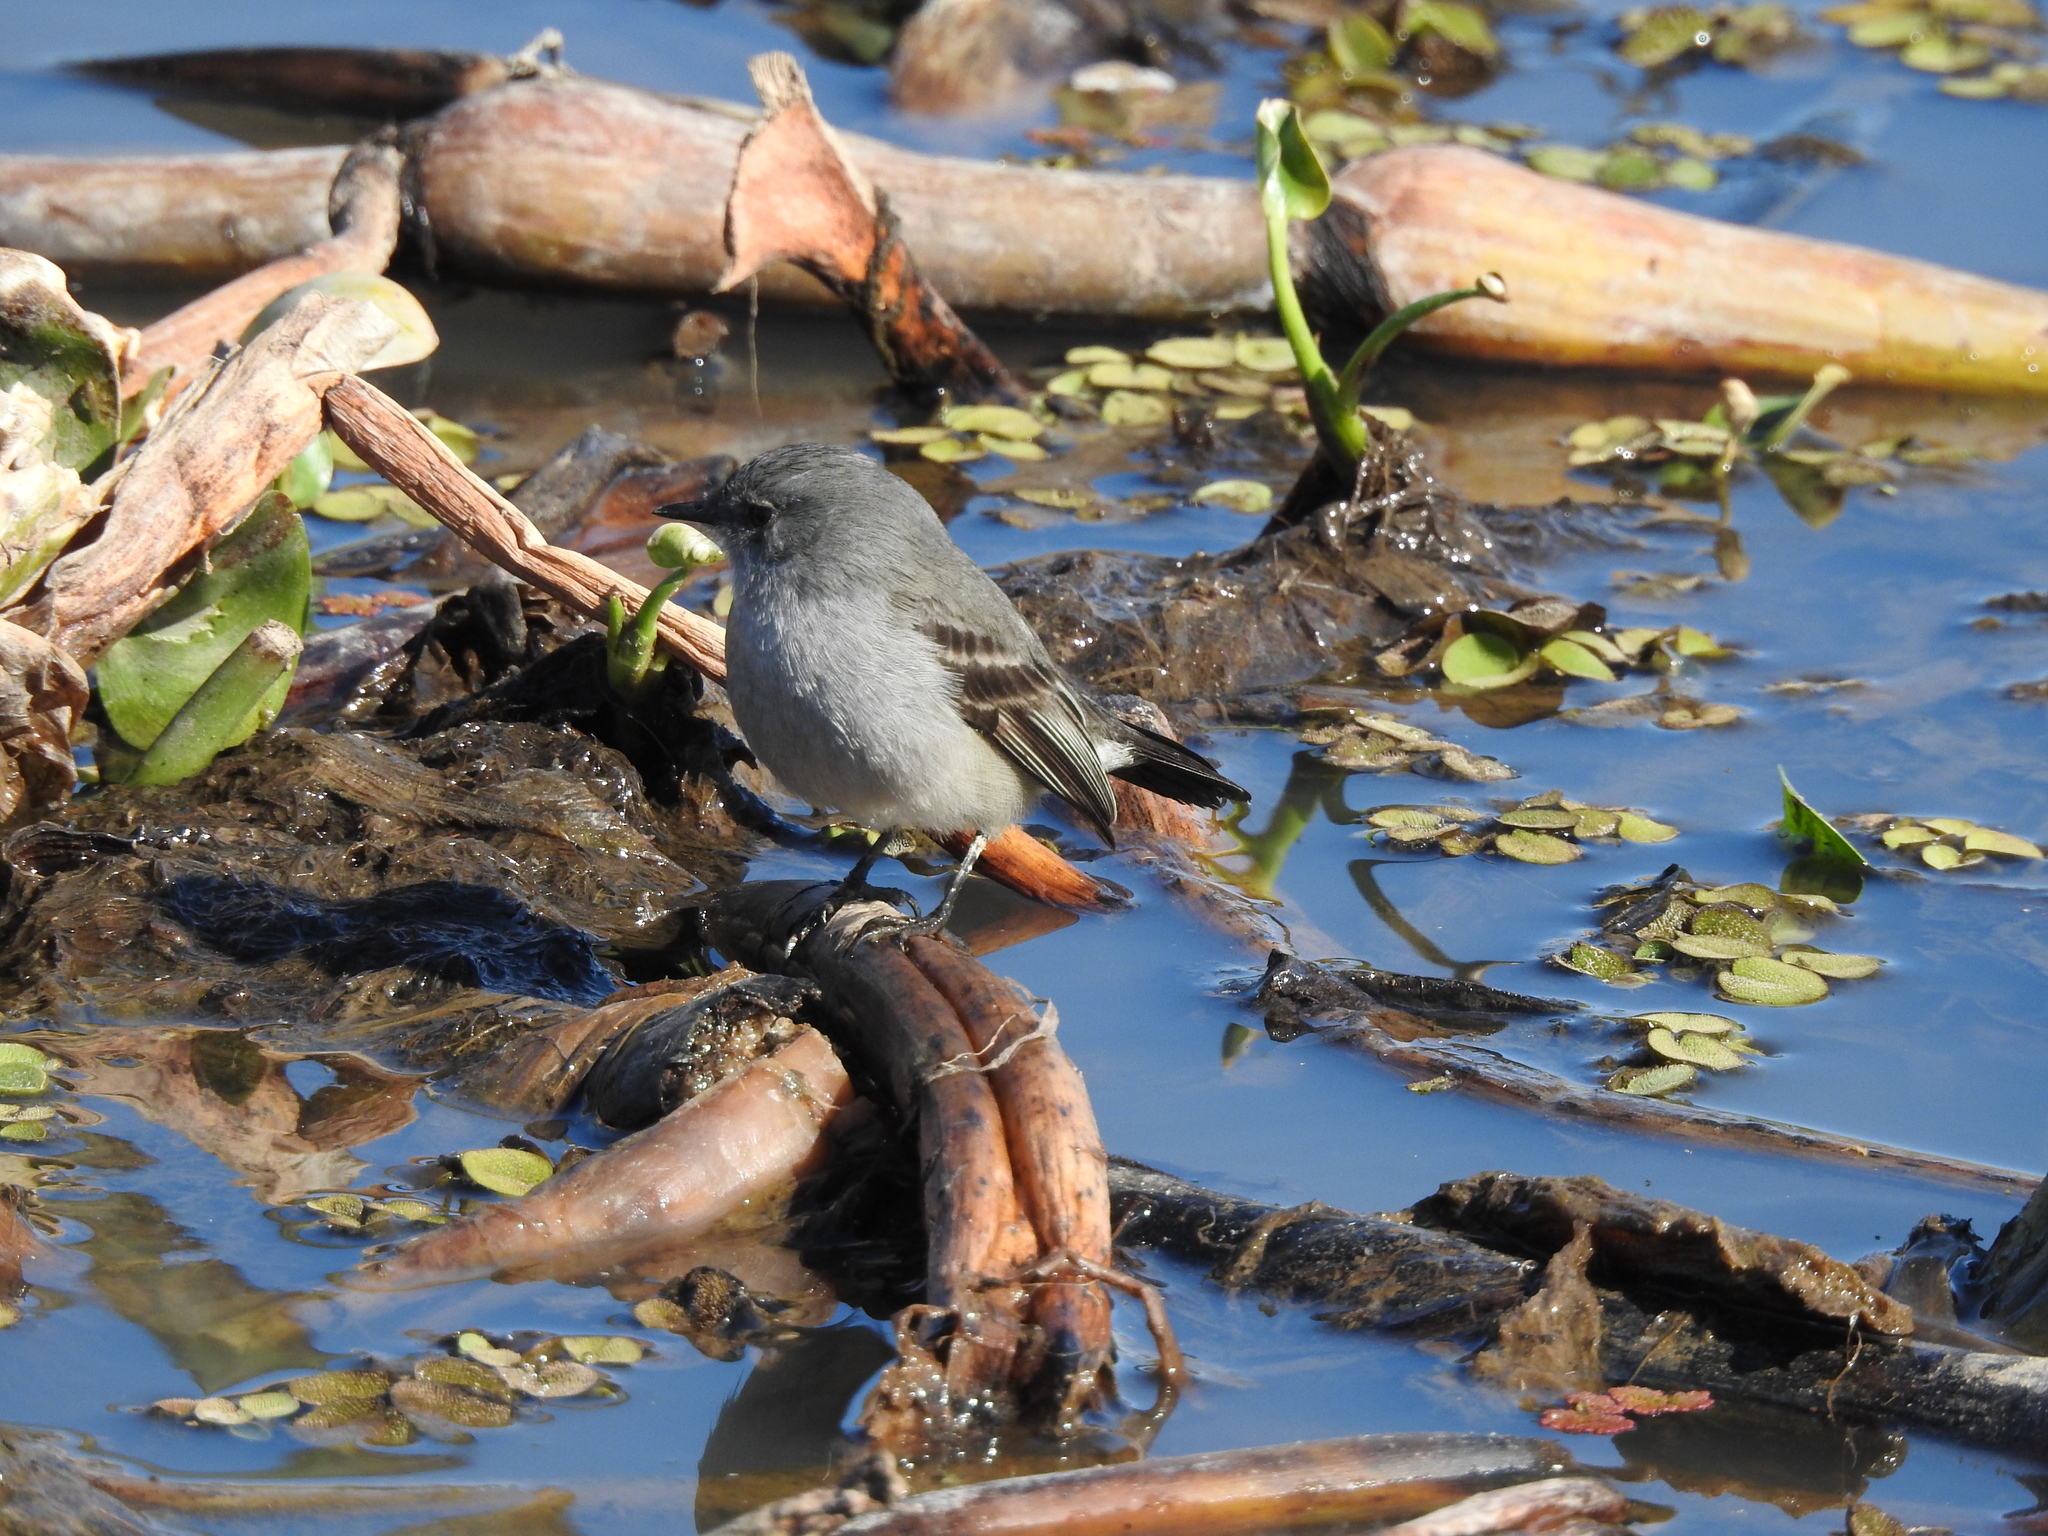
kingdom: Animalia
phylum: Chordata
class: Aves
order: Passeriformes
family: Tyrannidae
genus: Serpophaga
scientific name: Serpophaga nigricans
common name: Sooty tyrannulet
